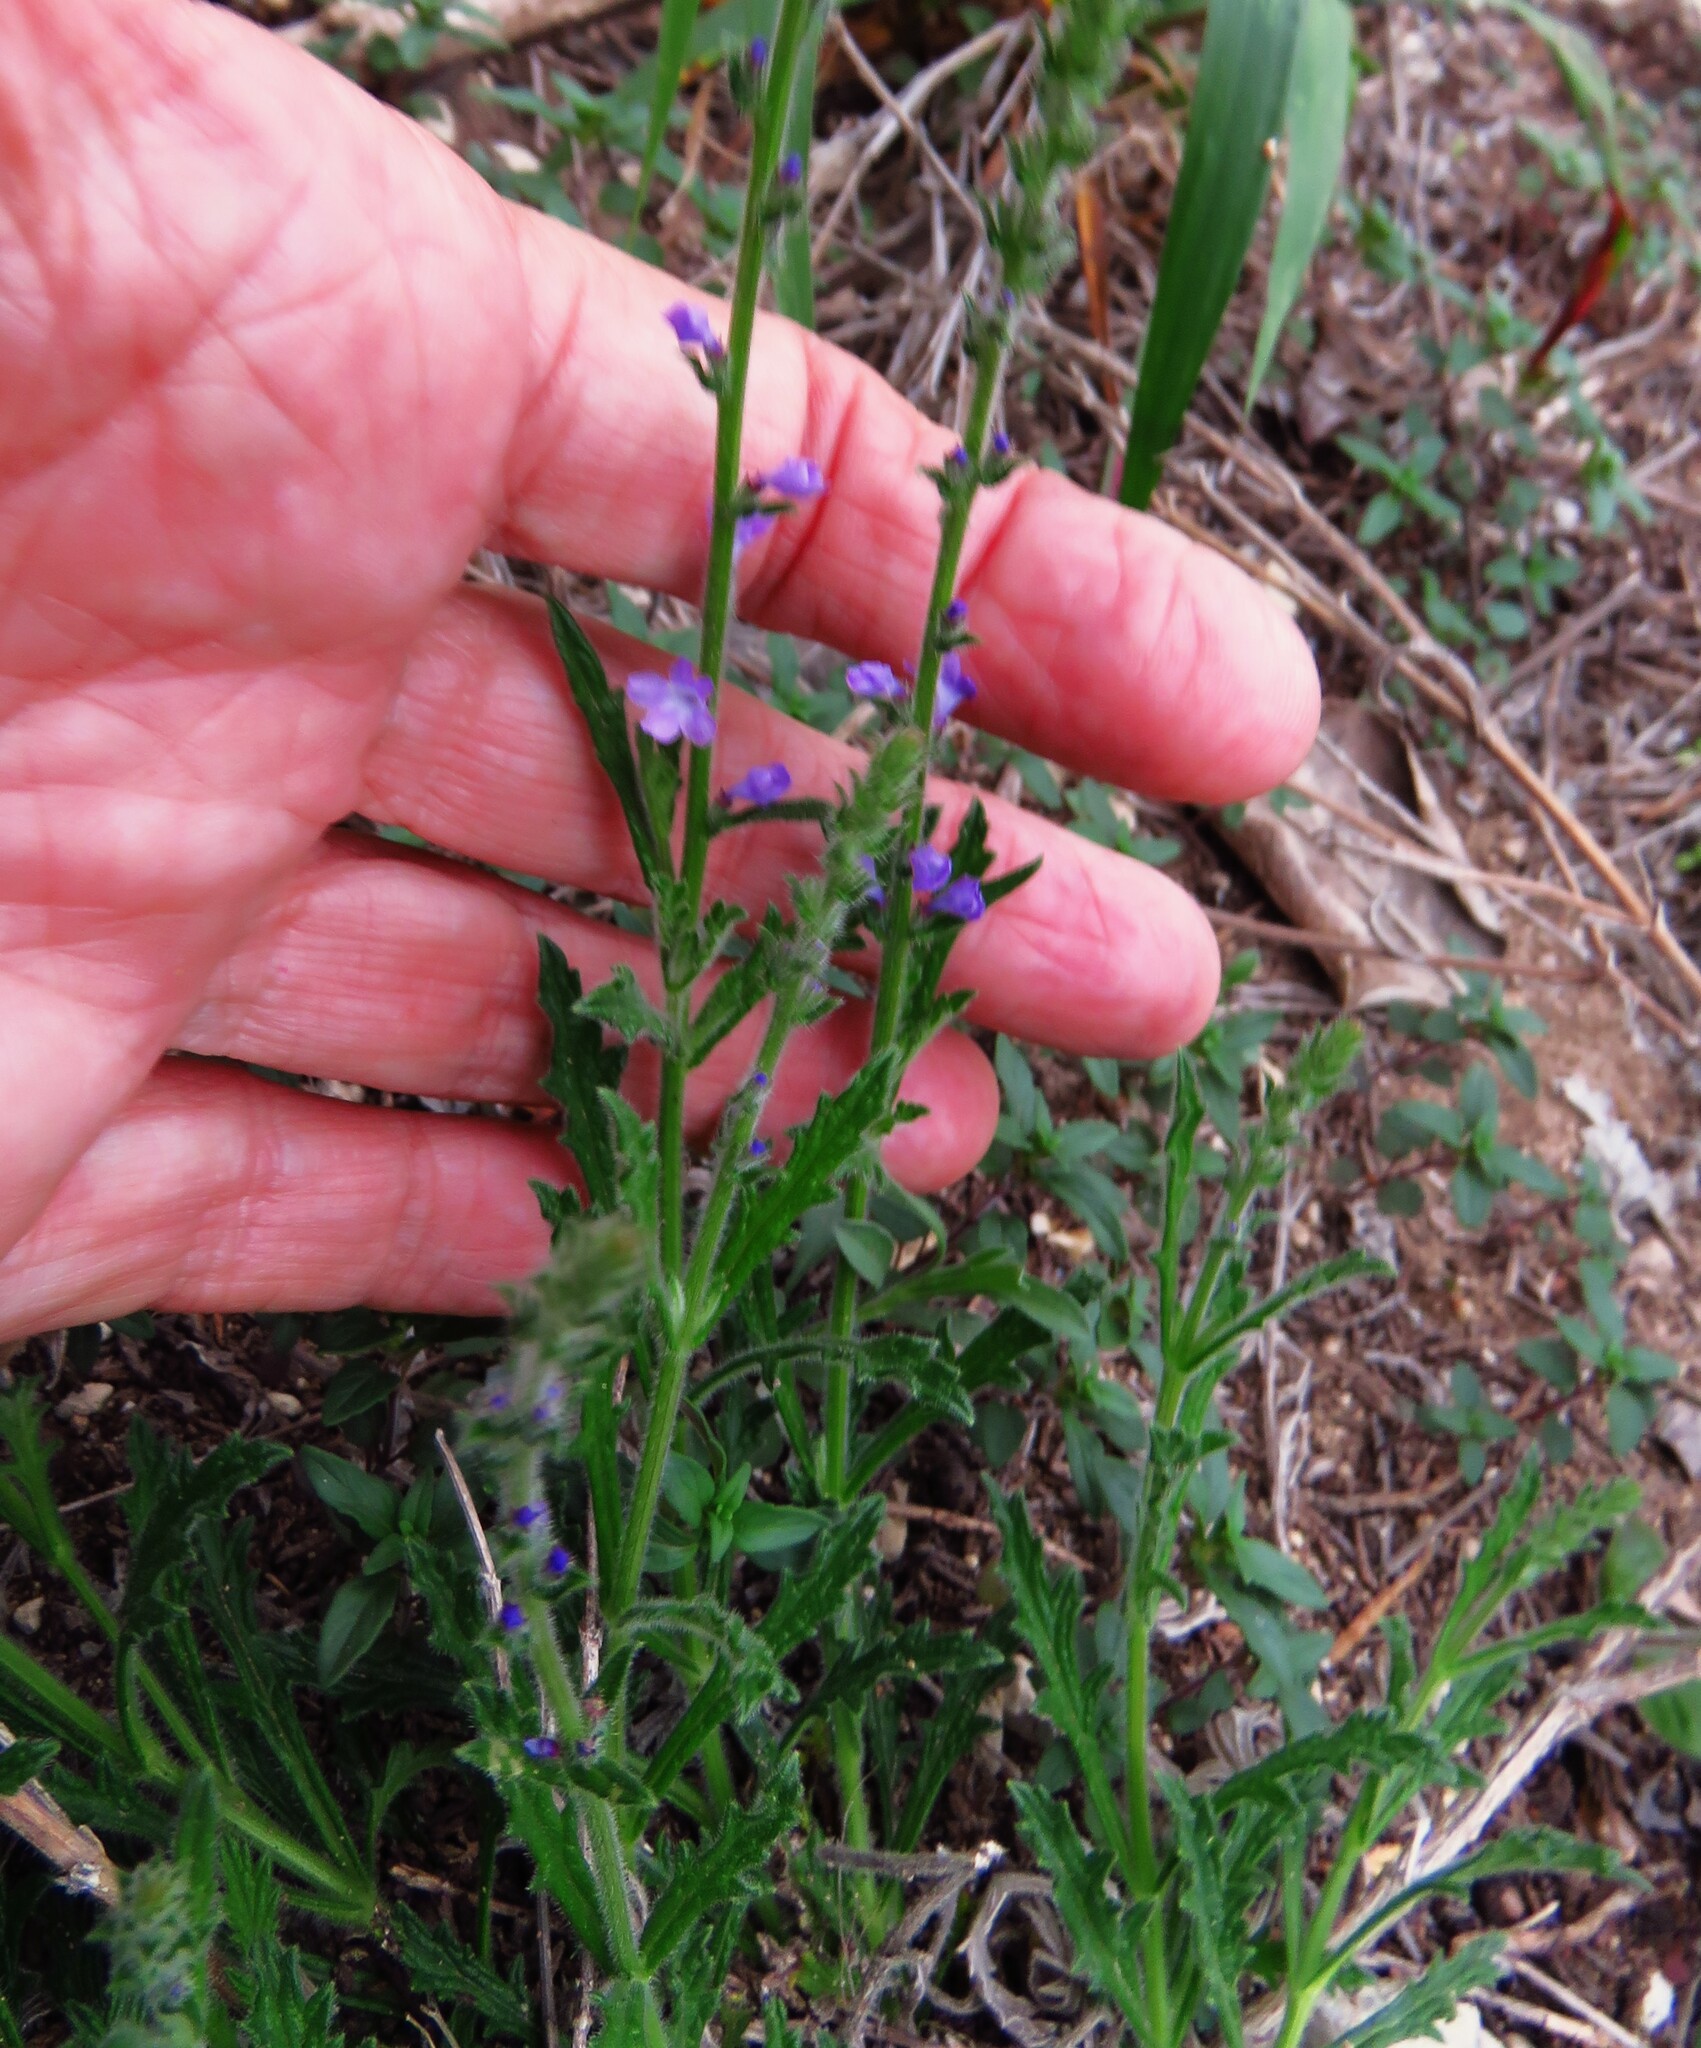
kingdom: Plantae
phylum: Tracheophyta
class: Magnoliopsida
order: Lamiales
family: Verbenaceae
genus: Verbena
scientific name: Verbena canescens
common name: Gray vervain
